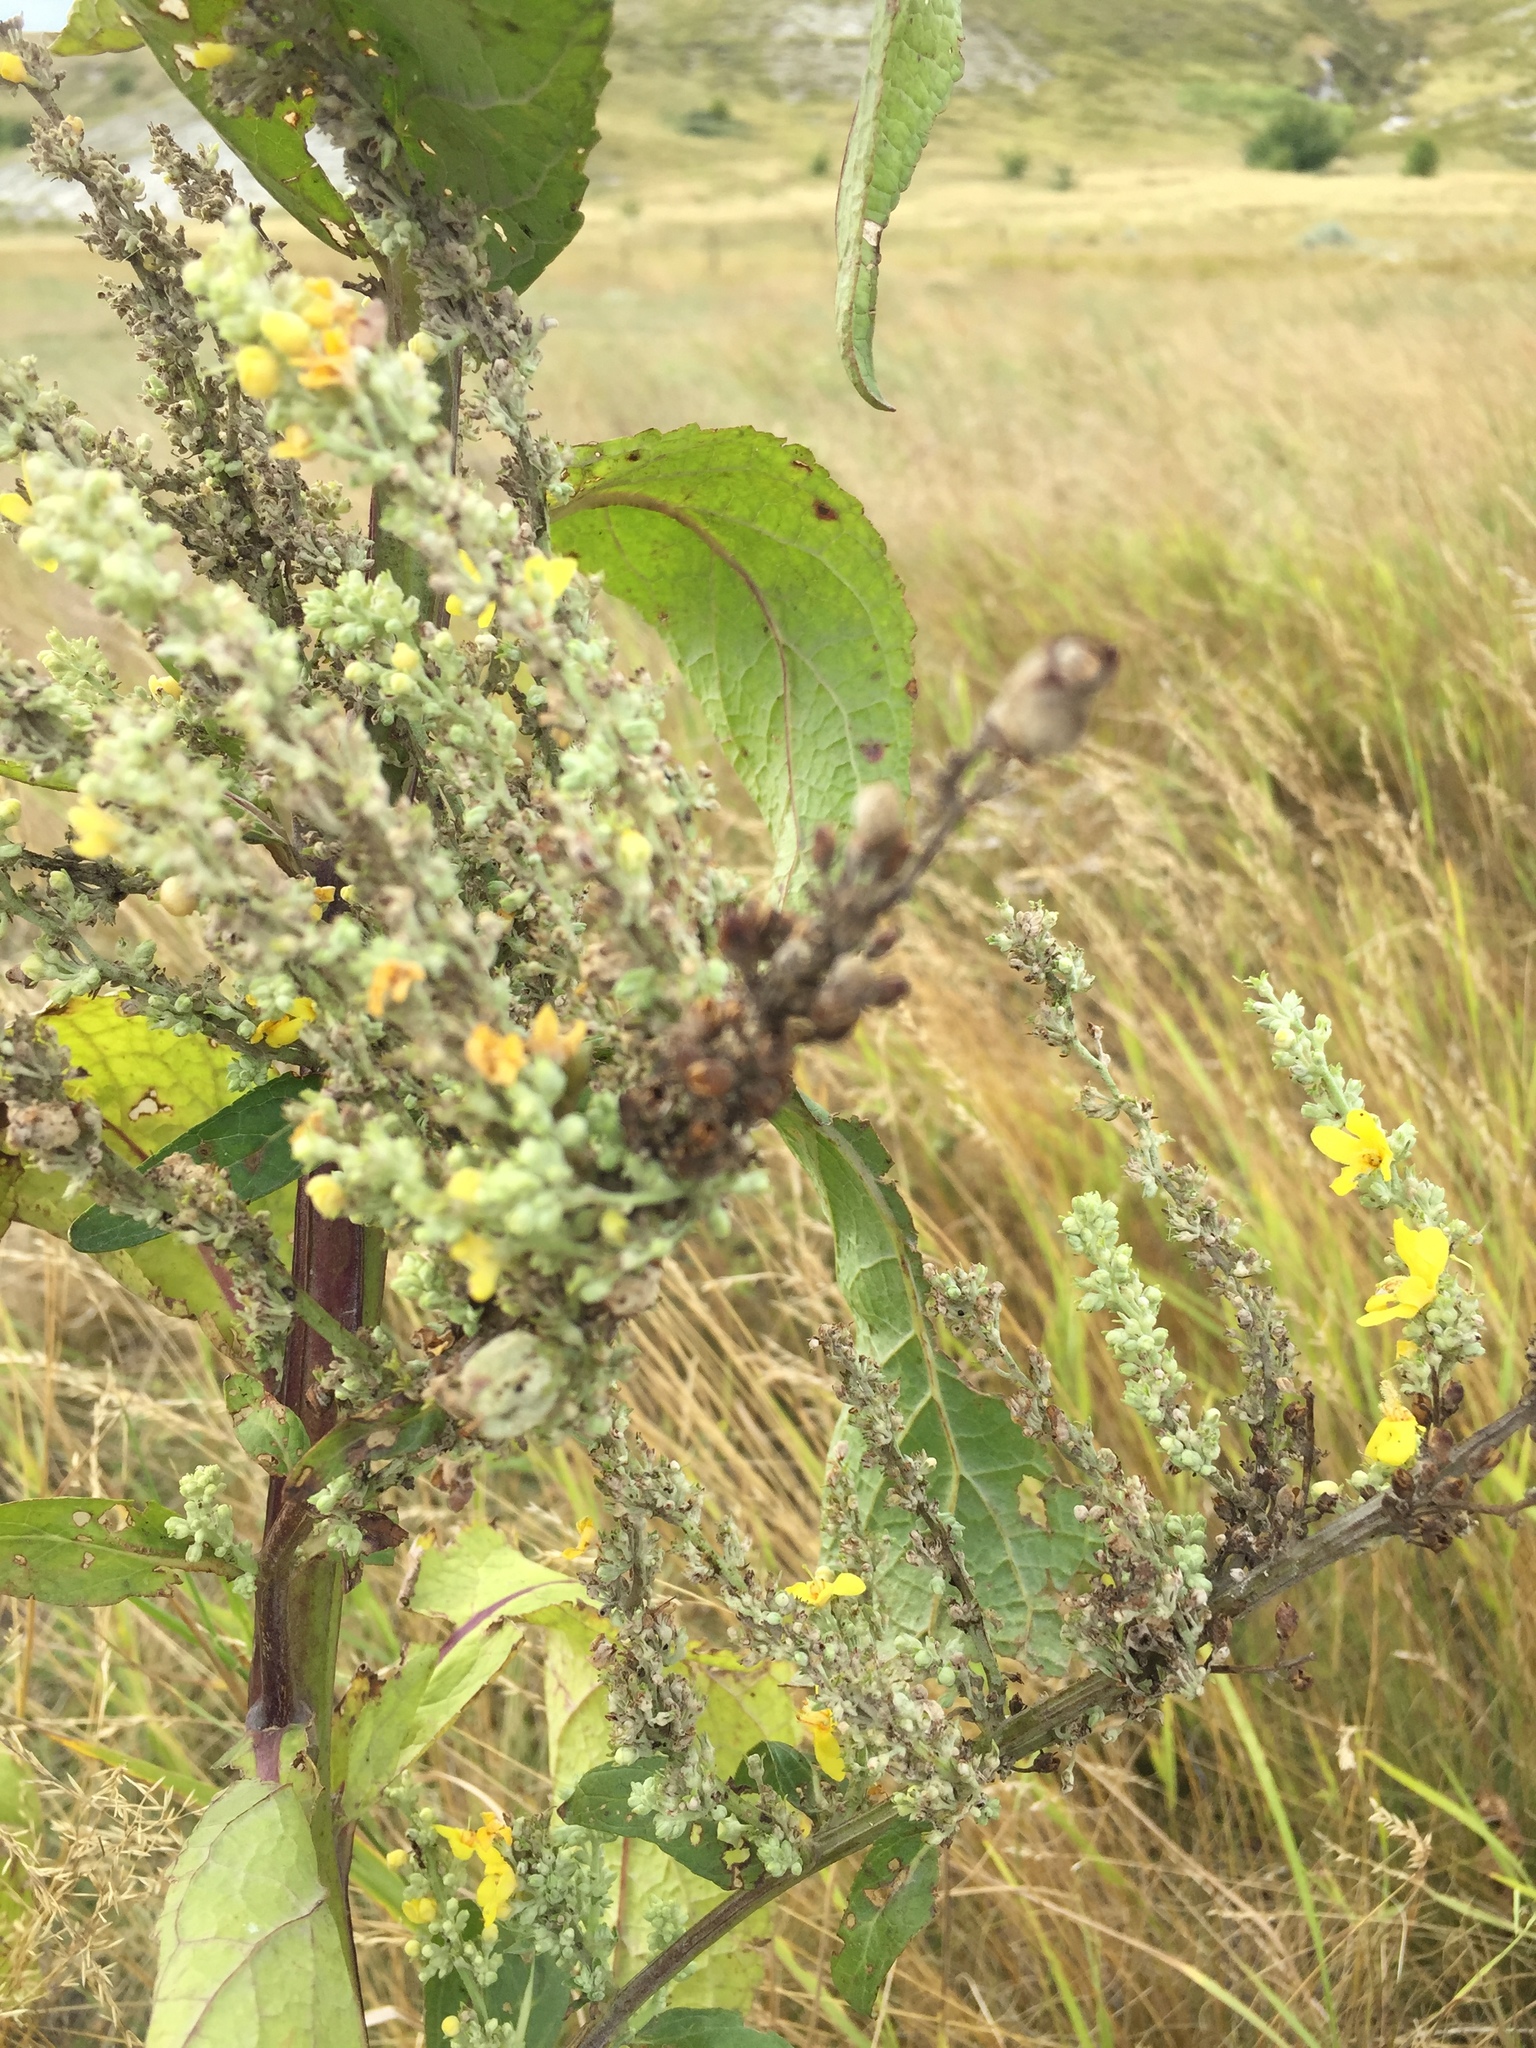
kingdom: Plantae
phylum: Tracheophyta
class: Magnoliopsida
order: Lamiales
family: Scrophulariaceae
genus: Verbascum
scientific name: Verbascum lychnitis
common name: White mullein
